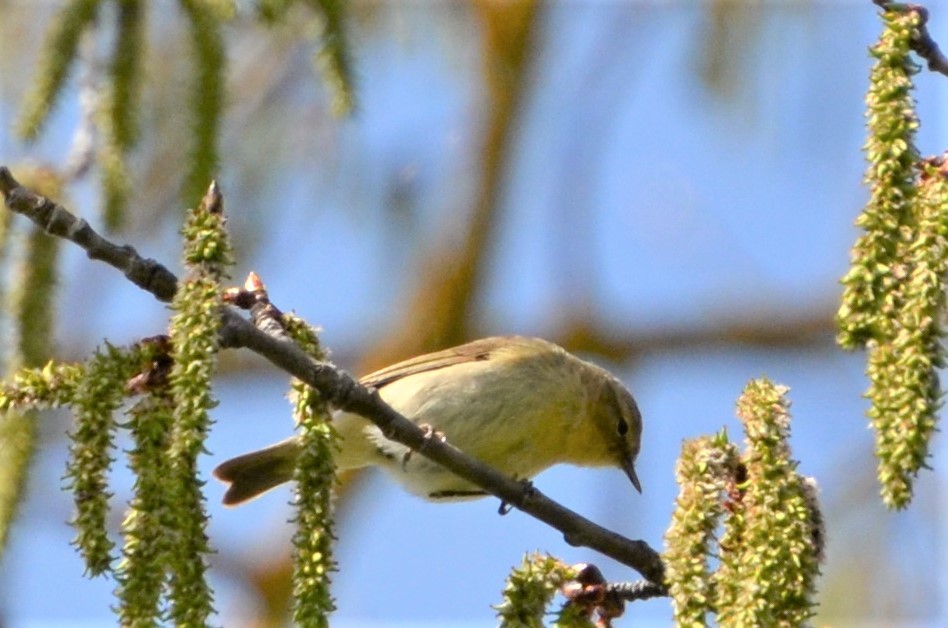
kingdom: Animalia
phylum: Chordata
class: Aves
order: Passeriformes
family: Phylloscopidae
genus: Phylloscopus
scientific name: Phylloscopus collybita
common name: Common chiffchaff
